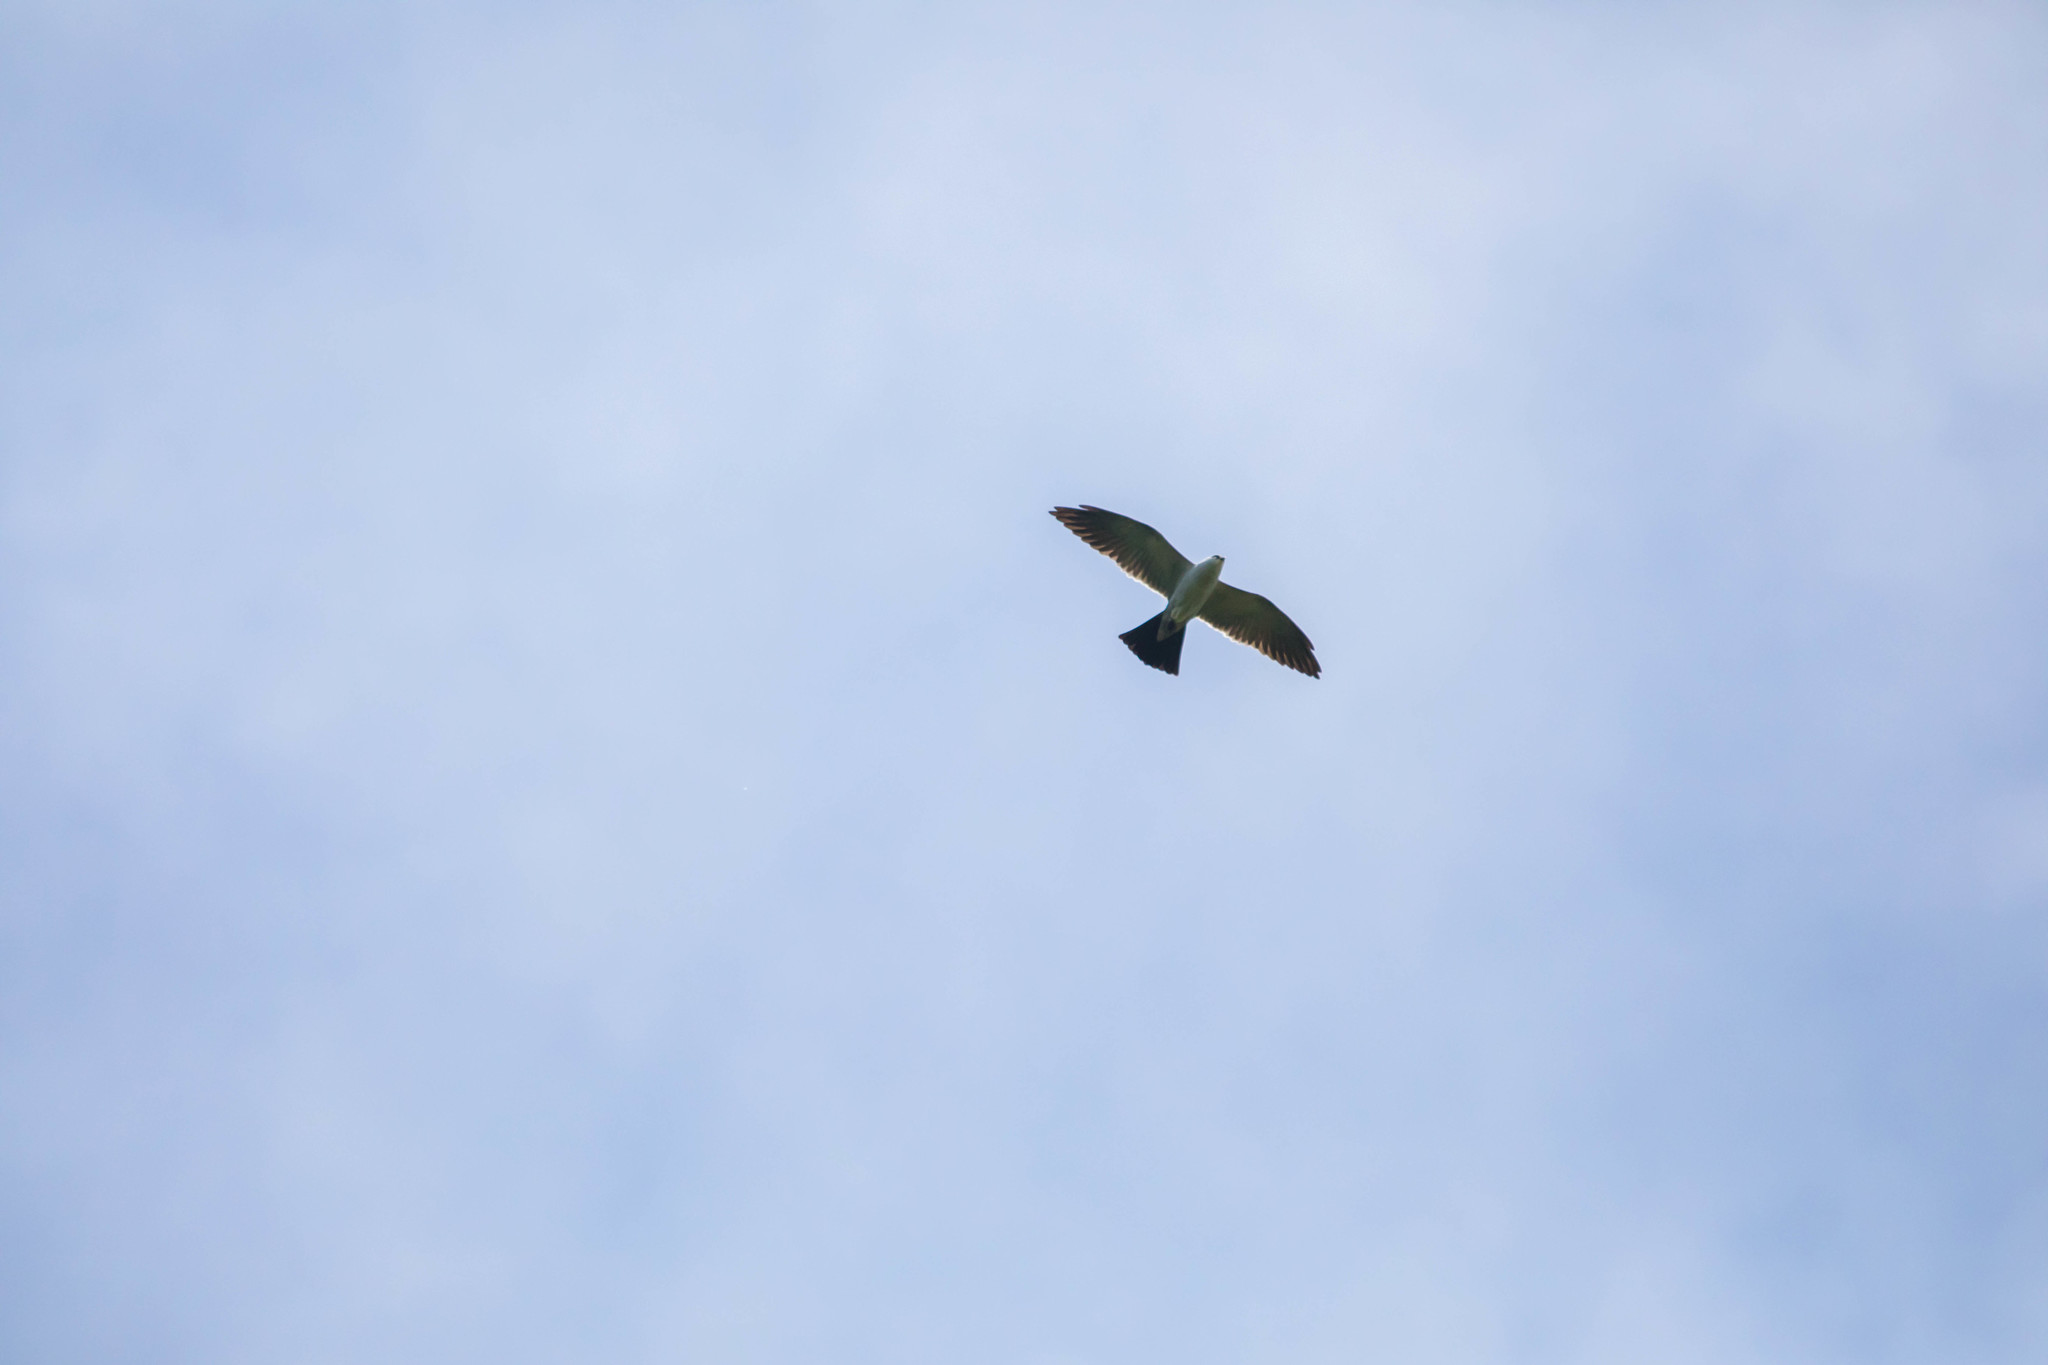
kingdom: Animalia
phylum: Chordata
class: Aves
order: Accipitriformes
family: Accipitridae
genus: Ictinia
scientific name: Ictinia mississippiensis
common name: Mississippi kite
